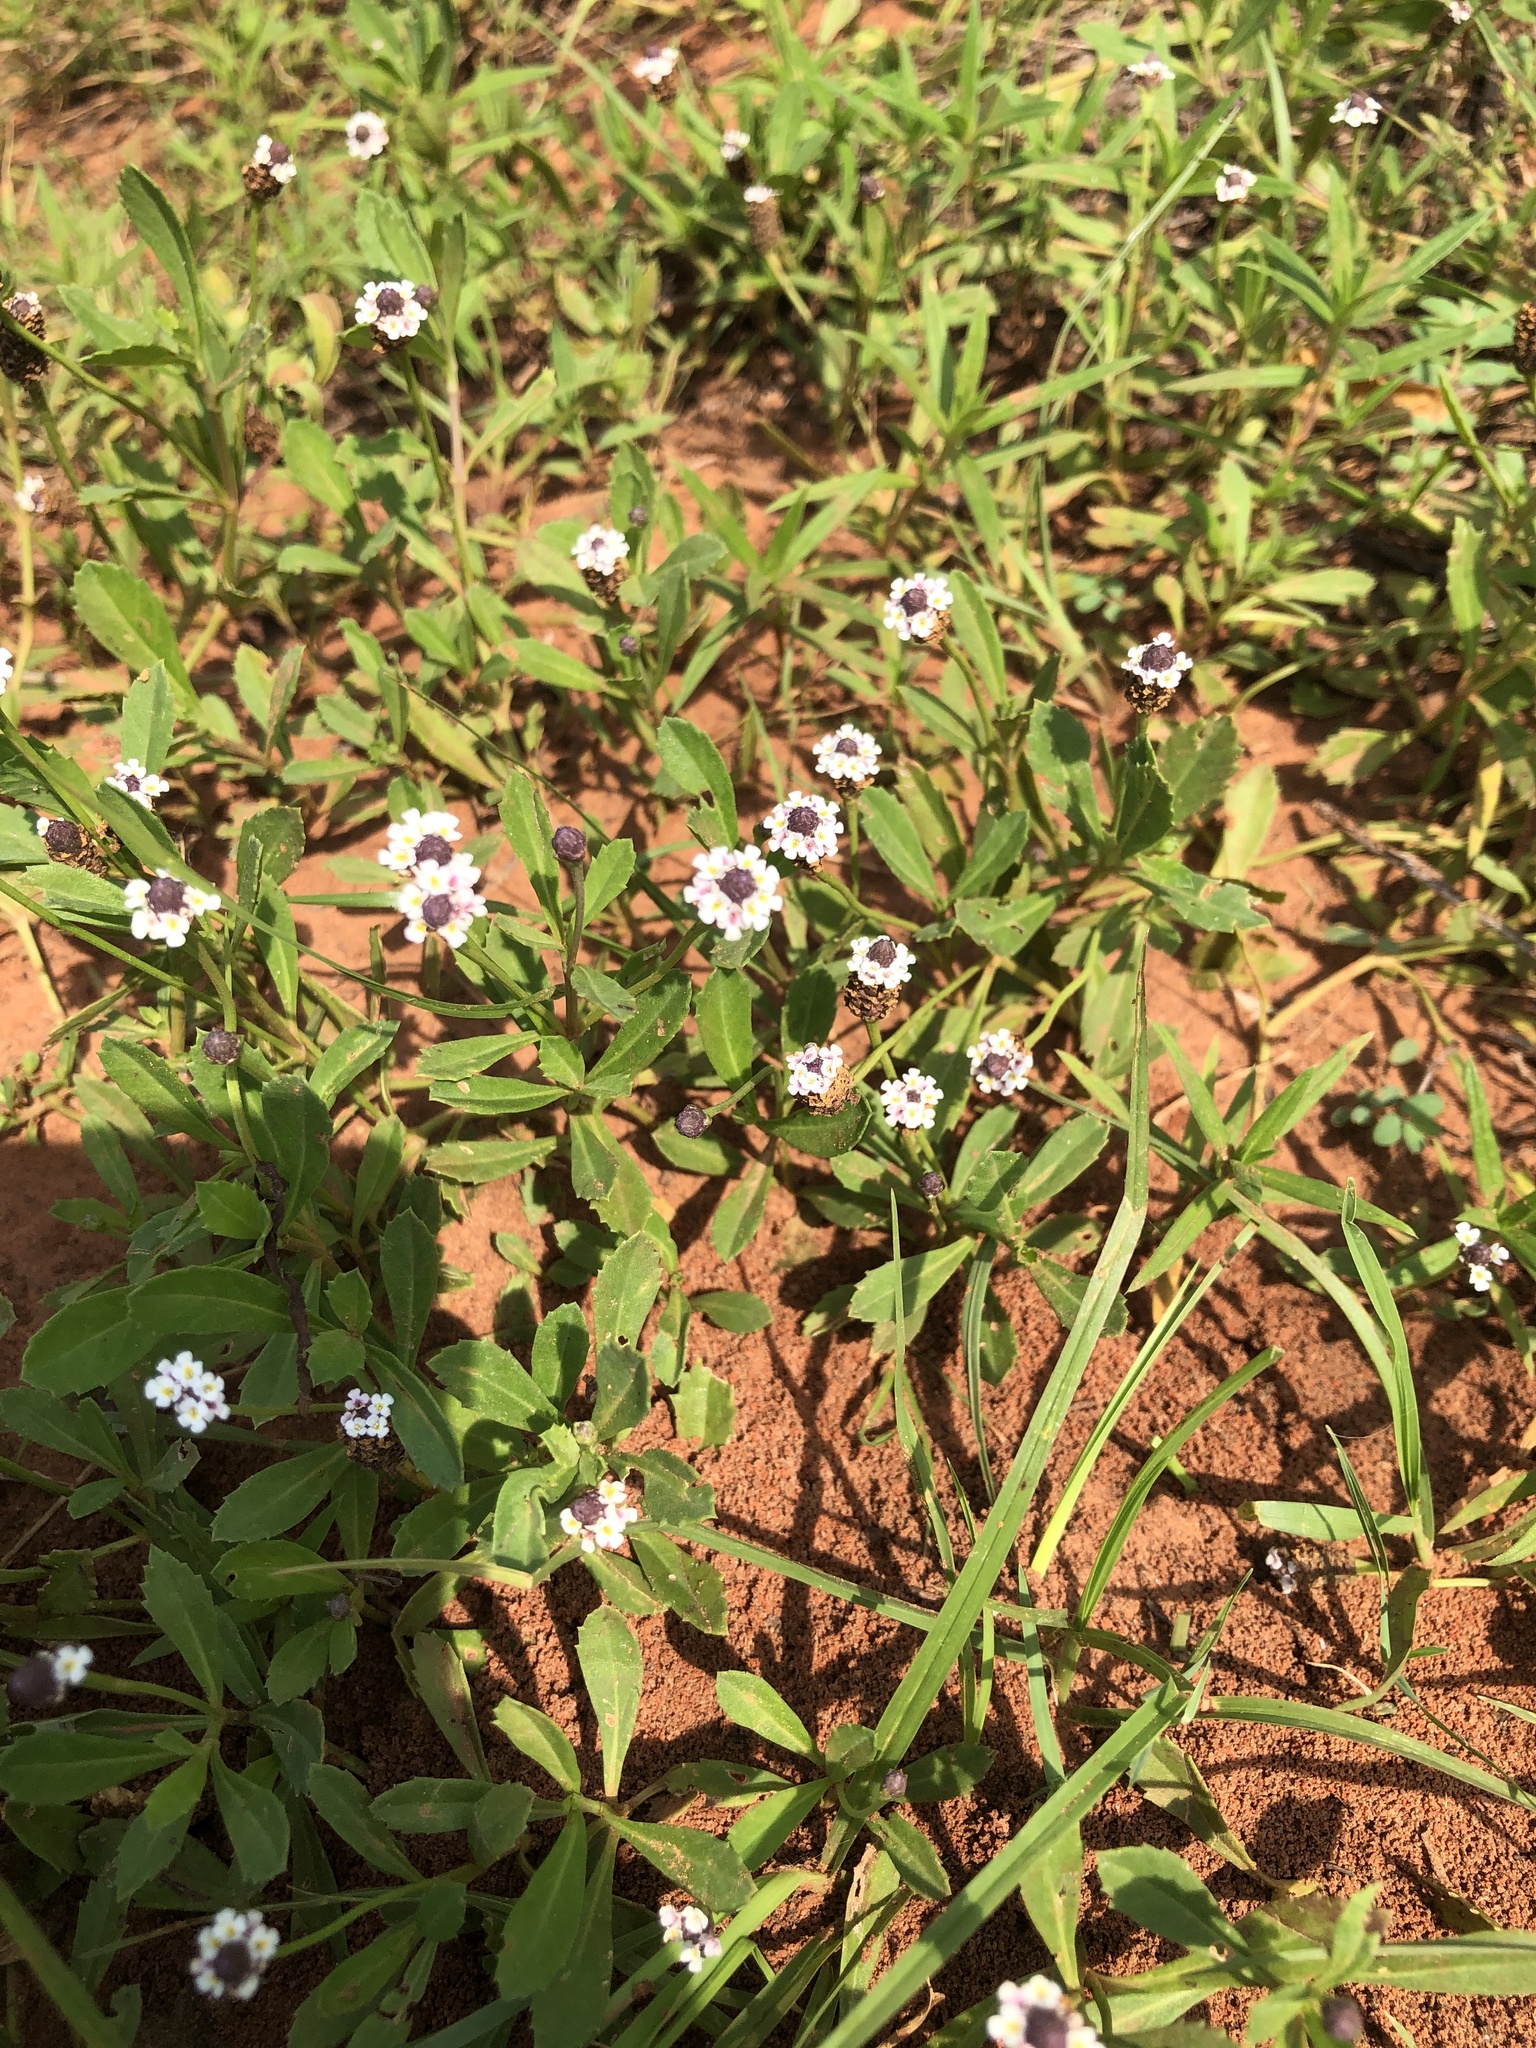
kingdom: Plantae
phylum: Tracheophyta
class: Magnoliopsida
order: Lamiales
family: Verbenaceae
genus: Phyla
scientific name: Phyla nodiflora
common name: Frogfruit
